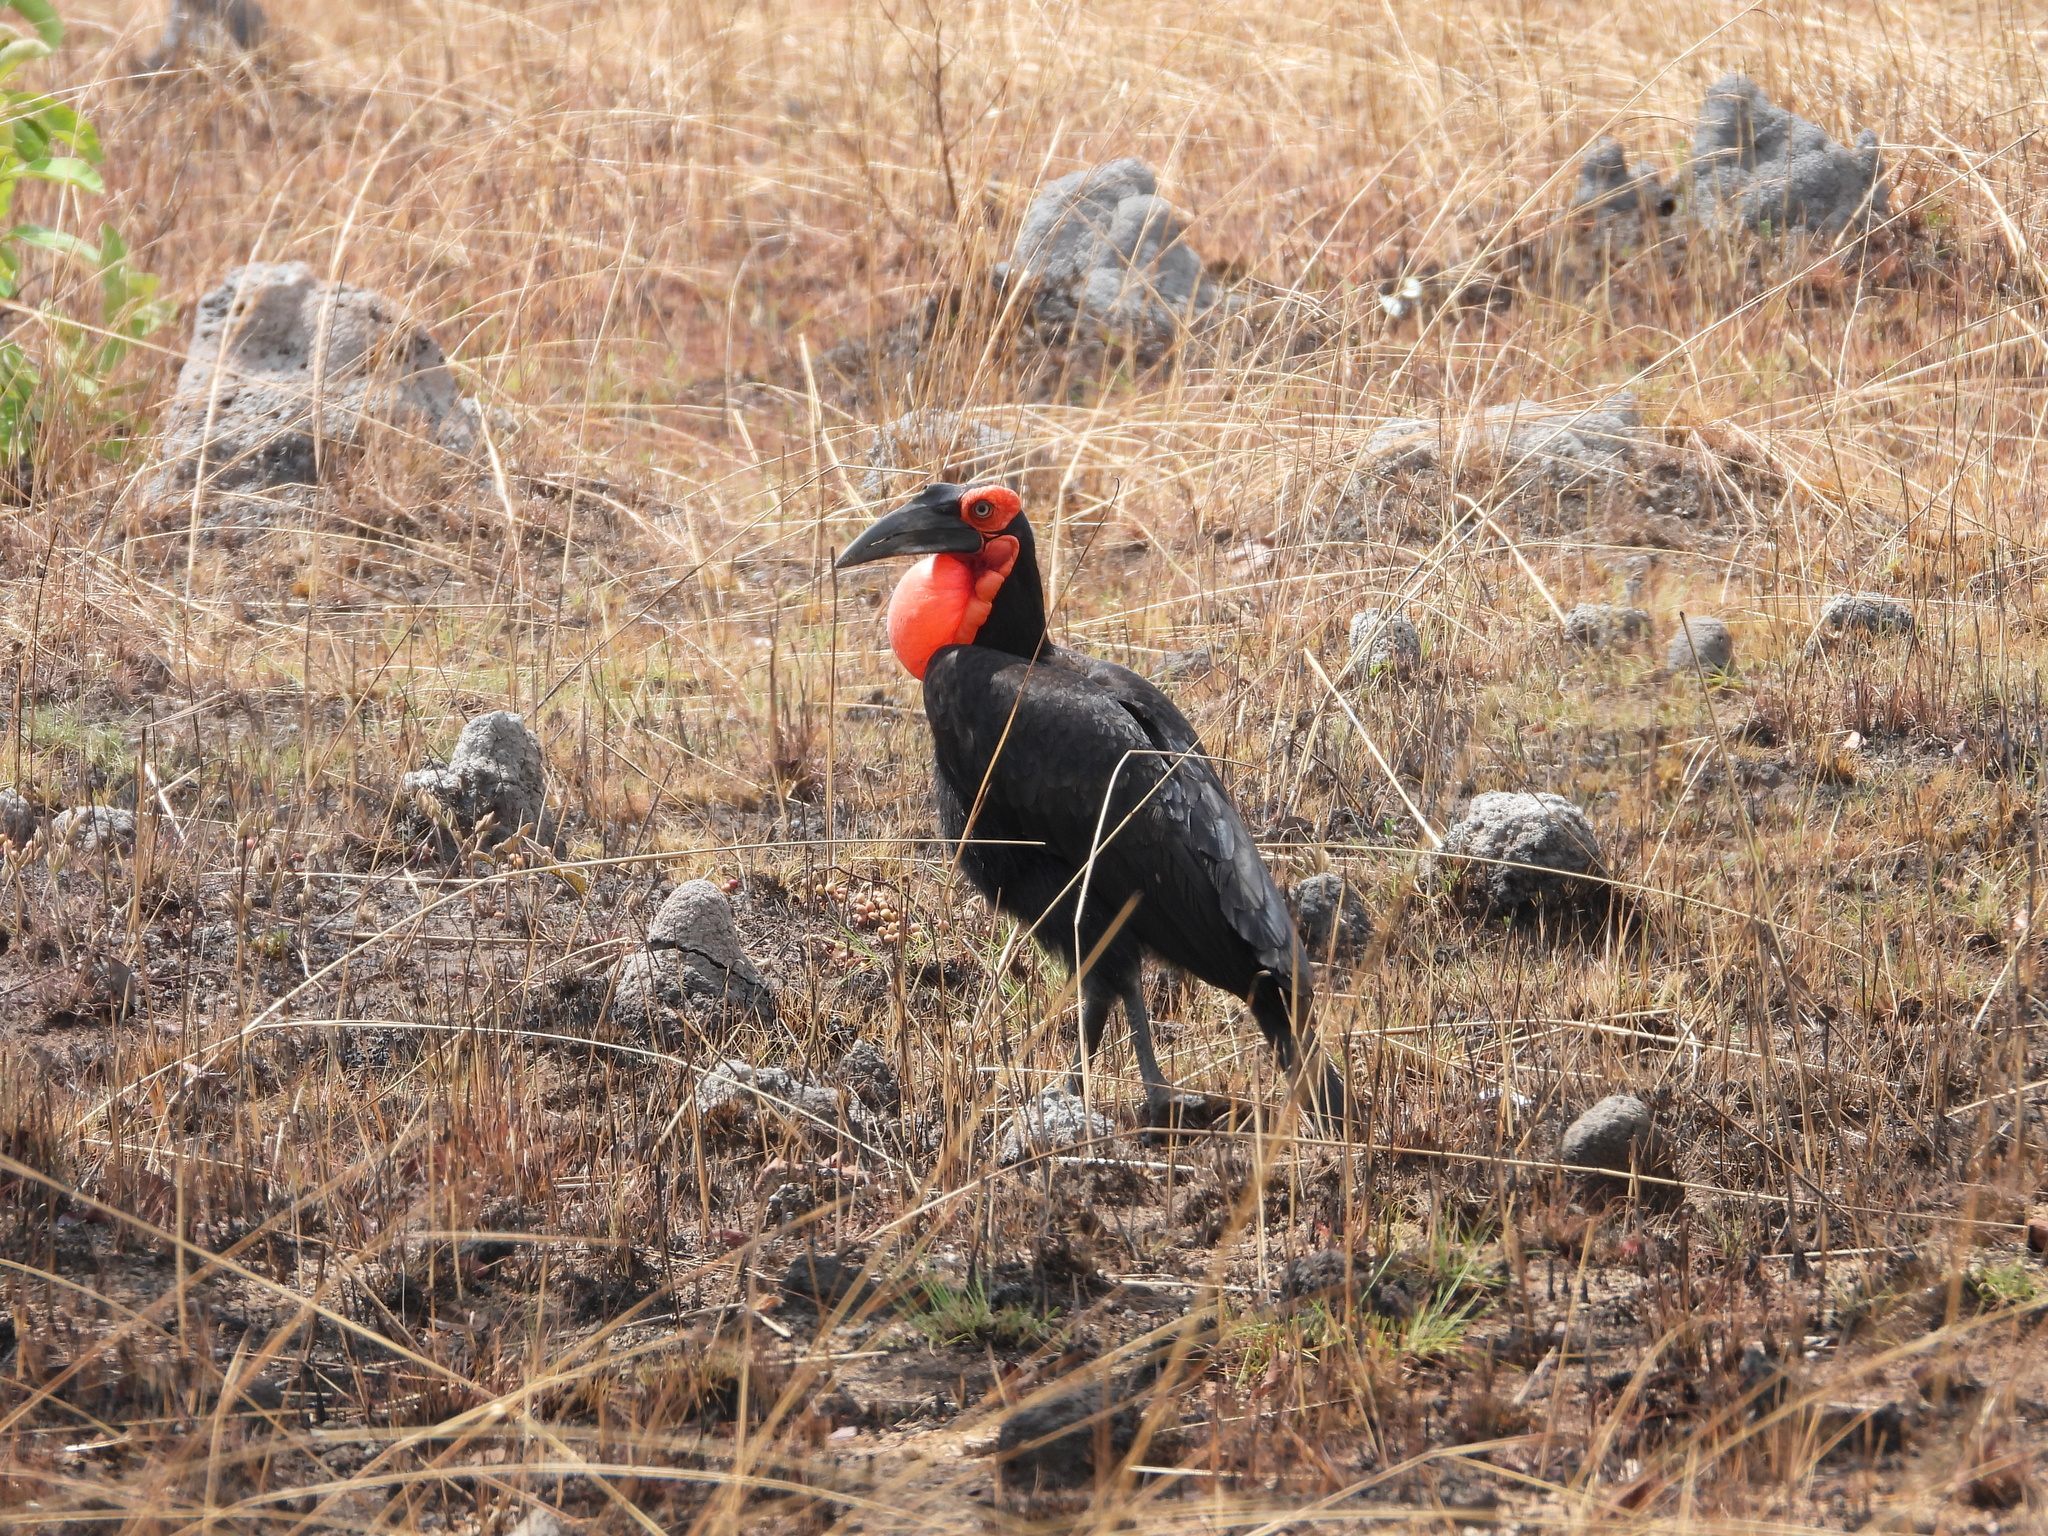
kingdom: Animalia
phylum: Chordata
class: Aves
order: Bucerotiformes
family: Bucorvidae
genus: Bucorvus
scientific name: Bucorvus leadbeateri
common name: Southern ground-hornbill
